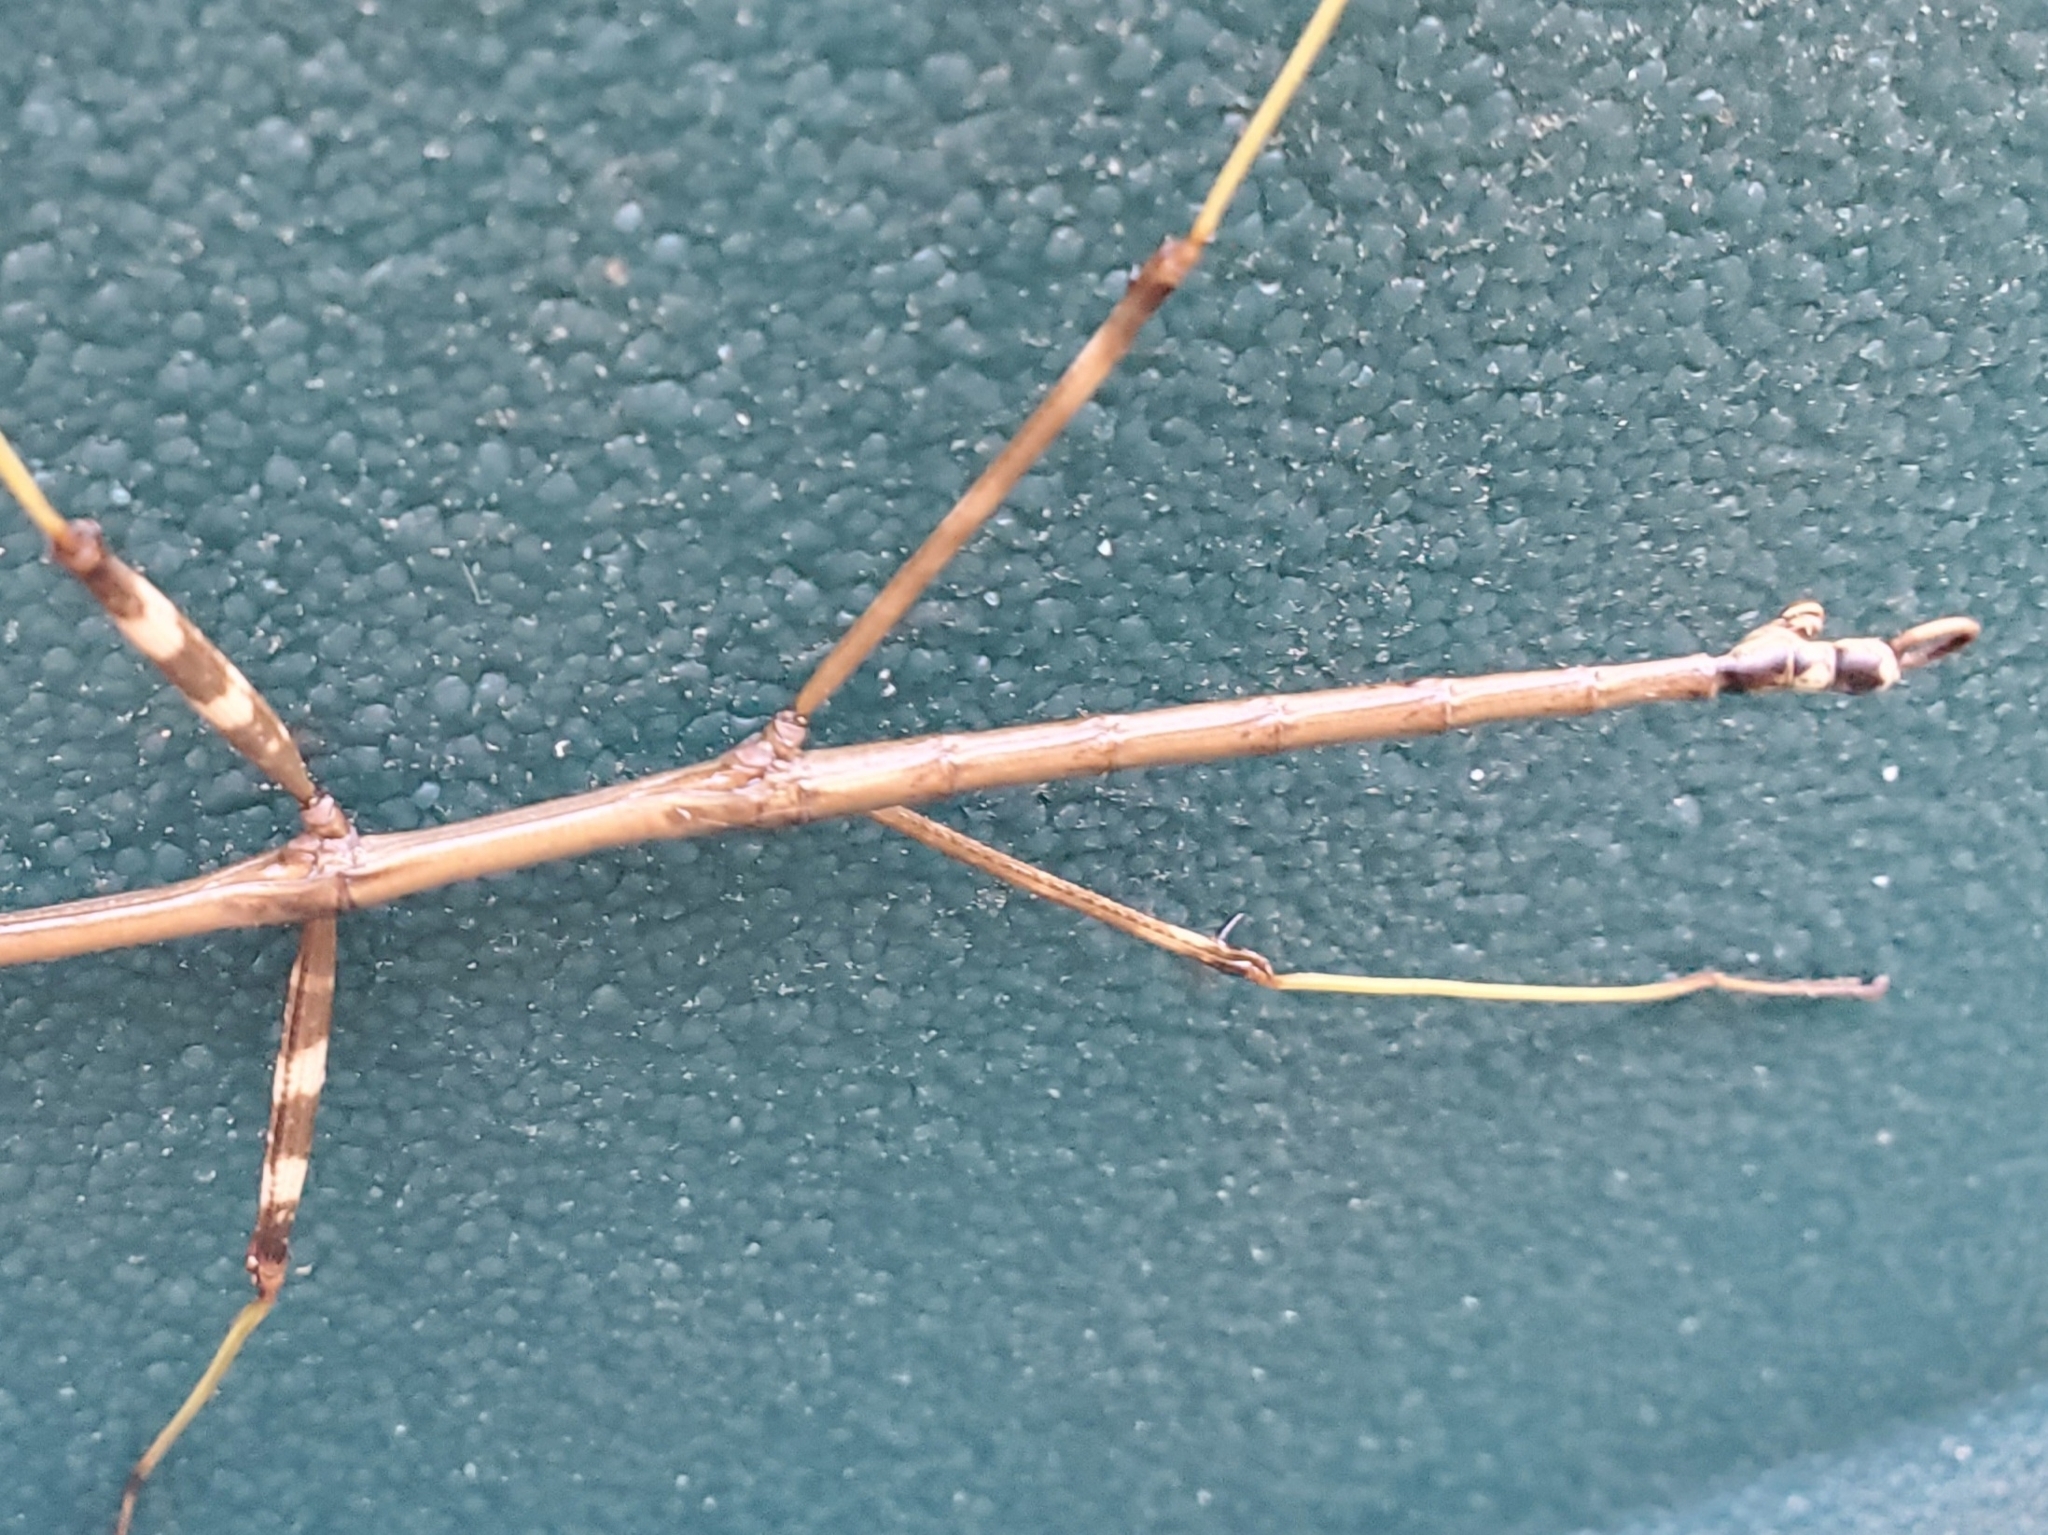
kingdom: Animalia
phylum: Arthropoda
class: Insecta
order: Phasmida
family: Diapheromeridae
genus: Diapheromera
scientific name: Diapheromera femorata
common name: Common american walkingstick
